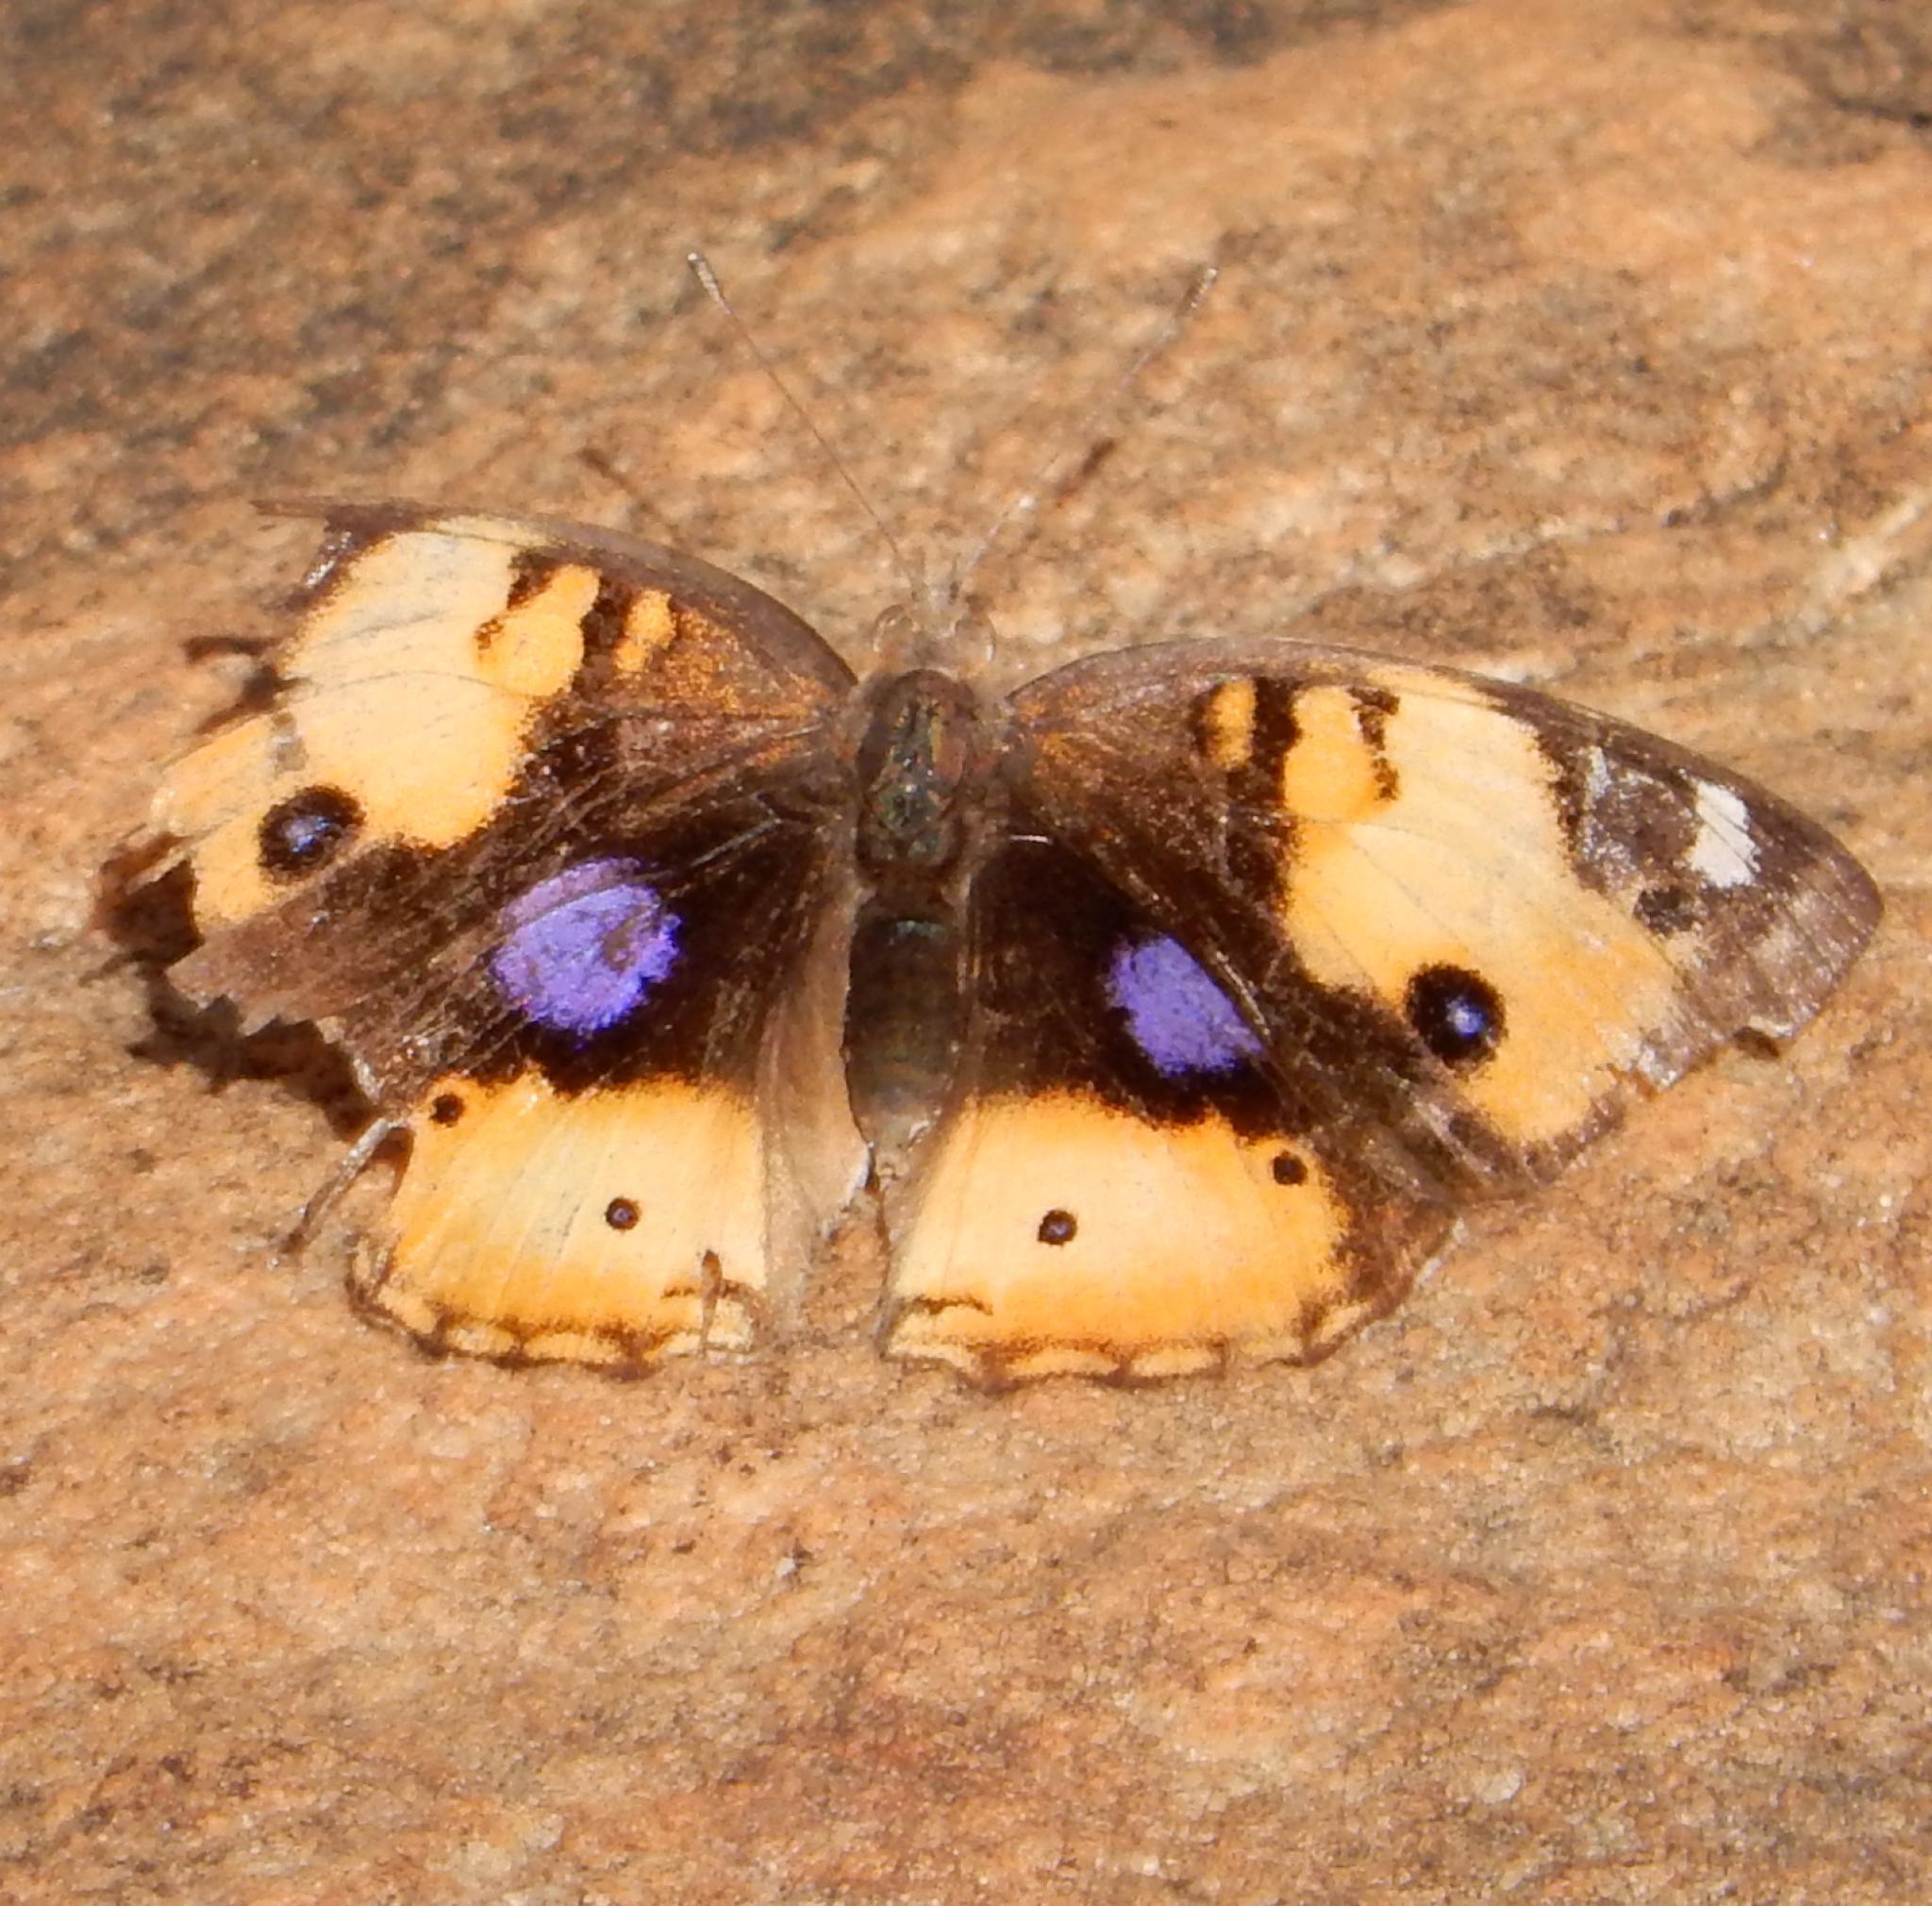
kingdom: Animalia
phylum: Arthropoda
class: Insecta
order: Lepidoptera
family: Nymphalidae
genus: Junonia
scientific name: Junonia hierta
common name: Yellow pansy
